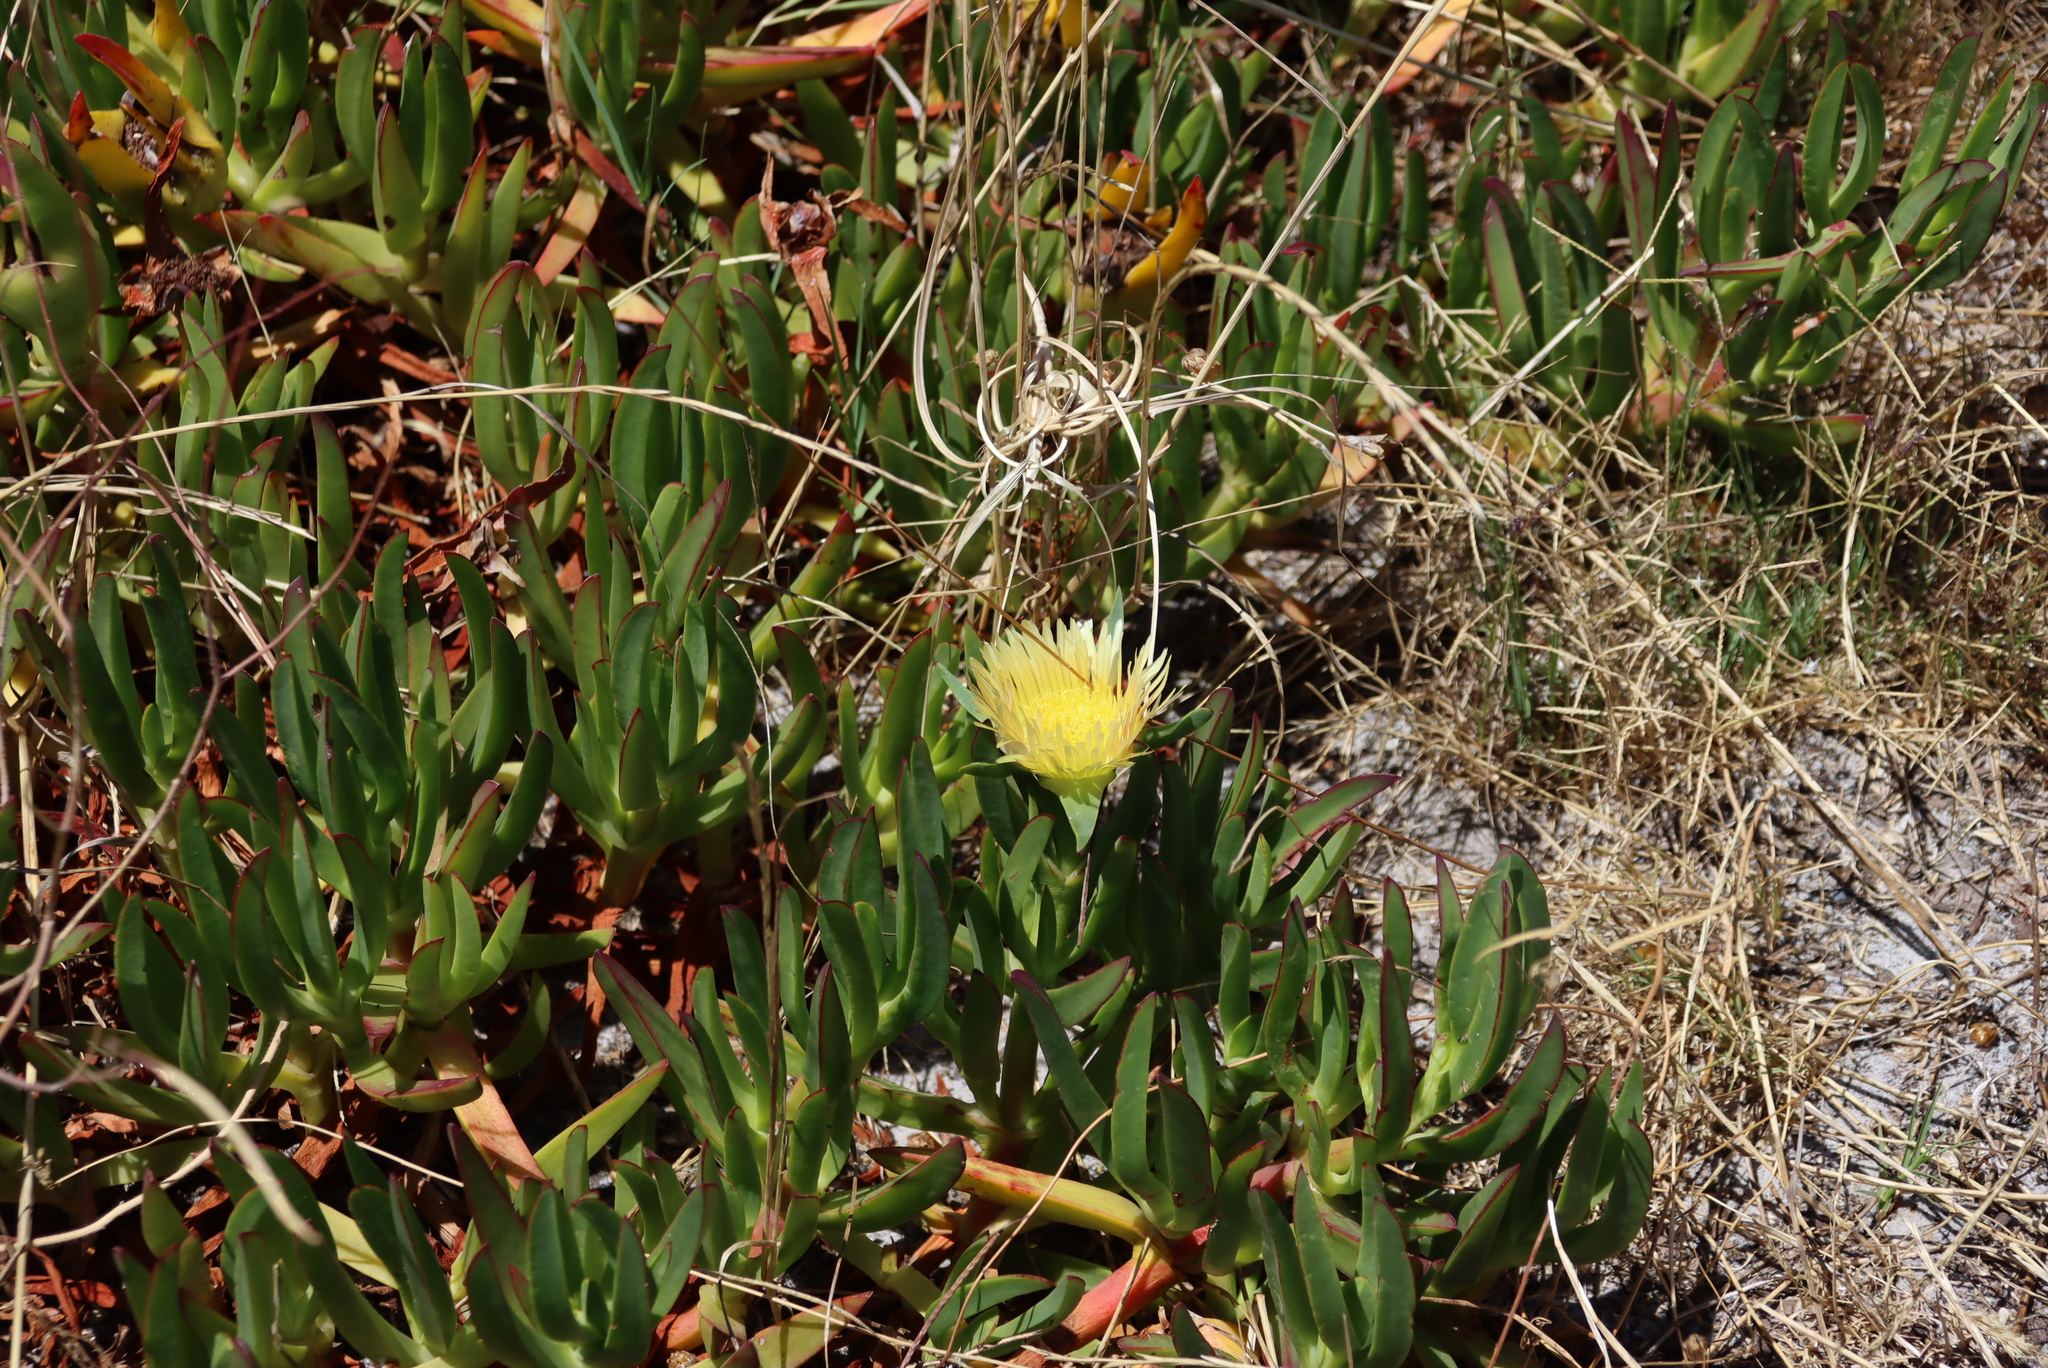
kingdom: Plantae
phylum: Tracheophyta
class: Magnoliopsida
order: Caryophyllales
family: Aizoaceae
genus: Carpobrotus
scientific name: Carpobrotus edulis
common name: Hottentot-fig
